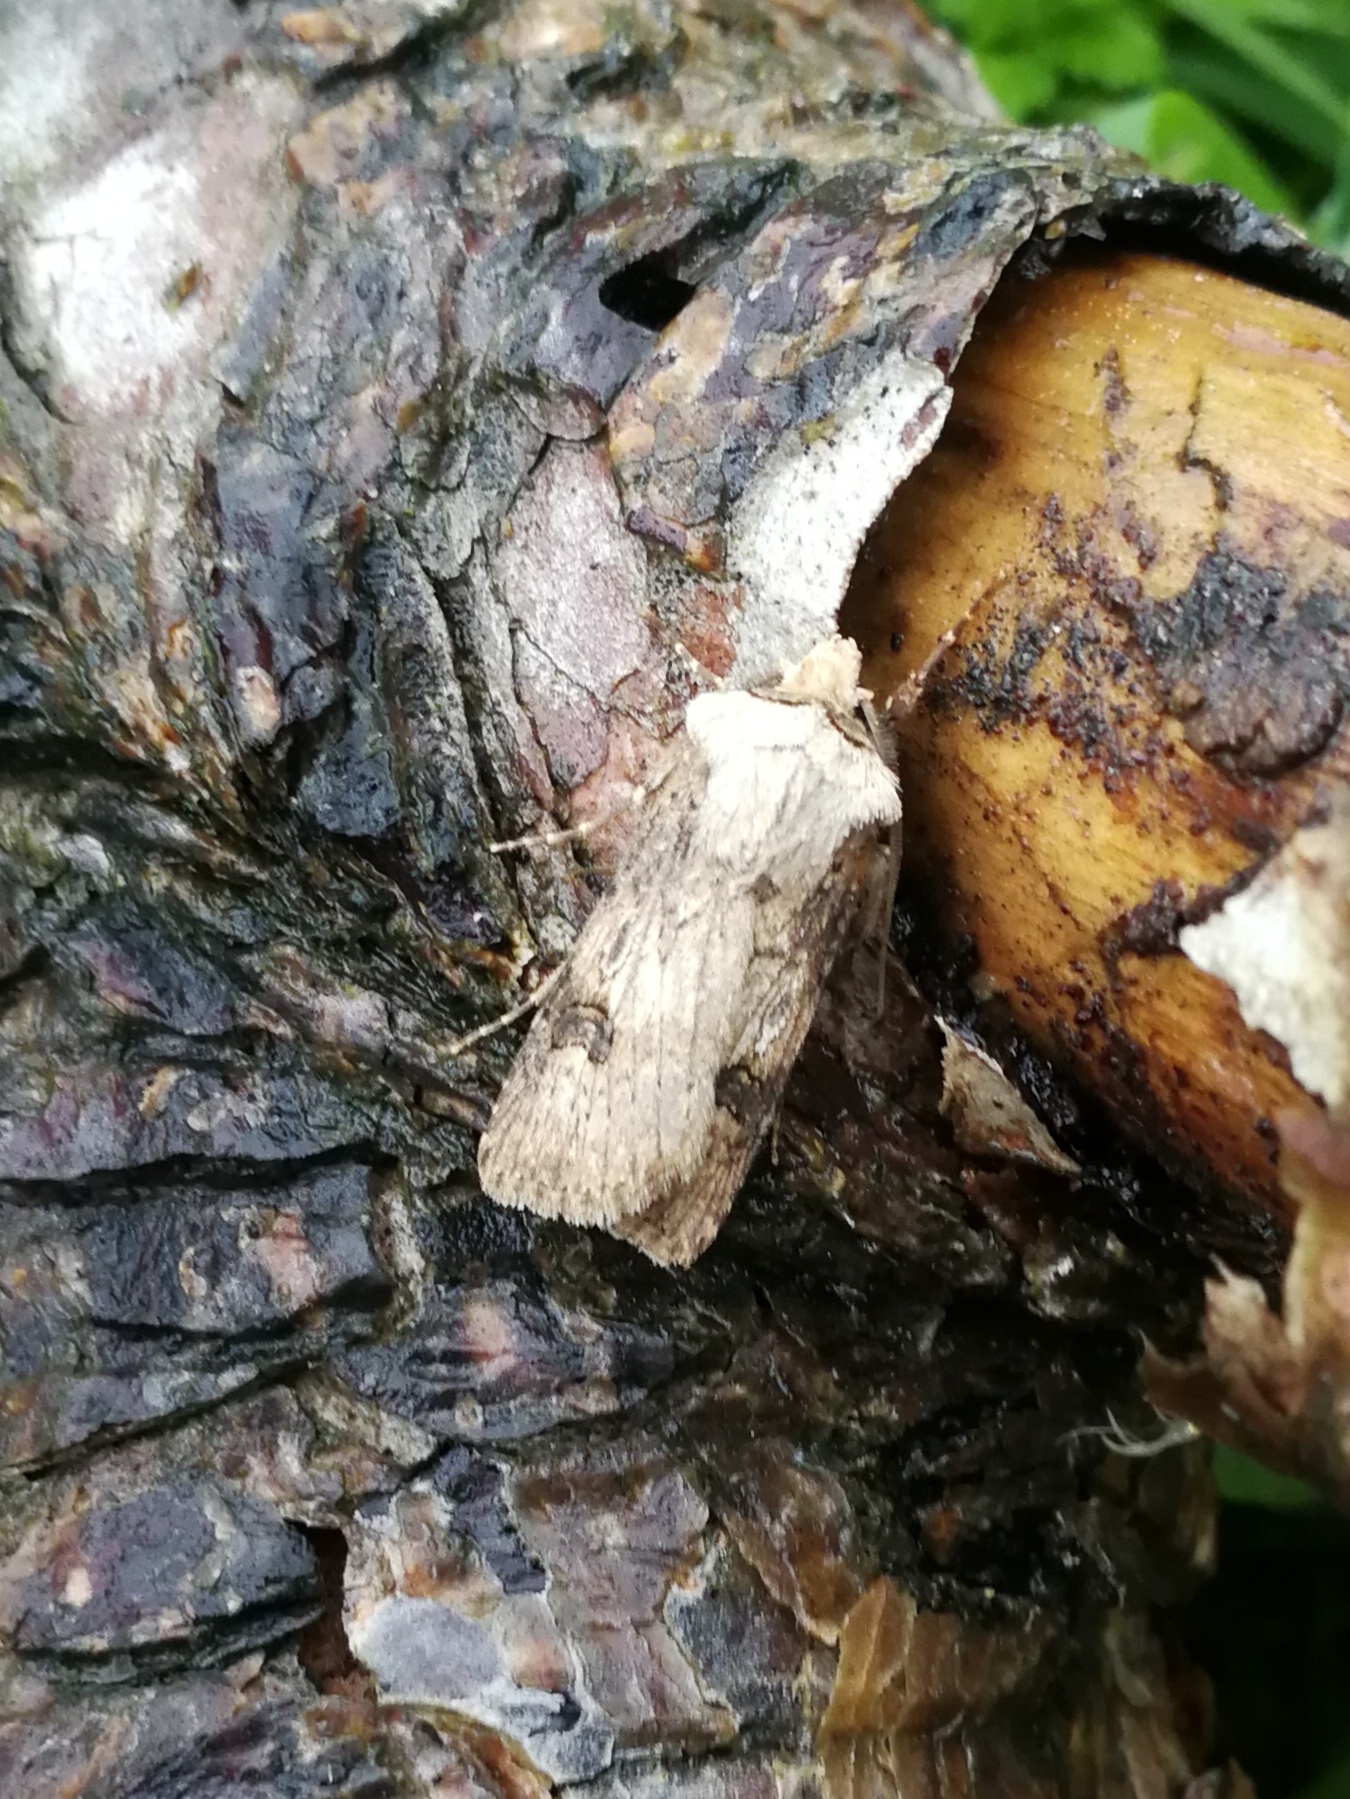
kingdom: Animalia
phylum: Arthropoda
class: Insecta
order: Lepidoptera
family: Noctuidae
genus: Agrotis
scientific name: Agrotis puta
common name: Shuttle-shaped dart
